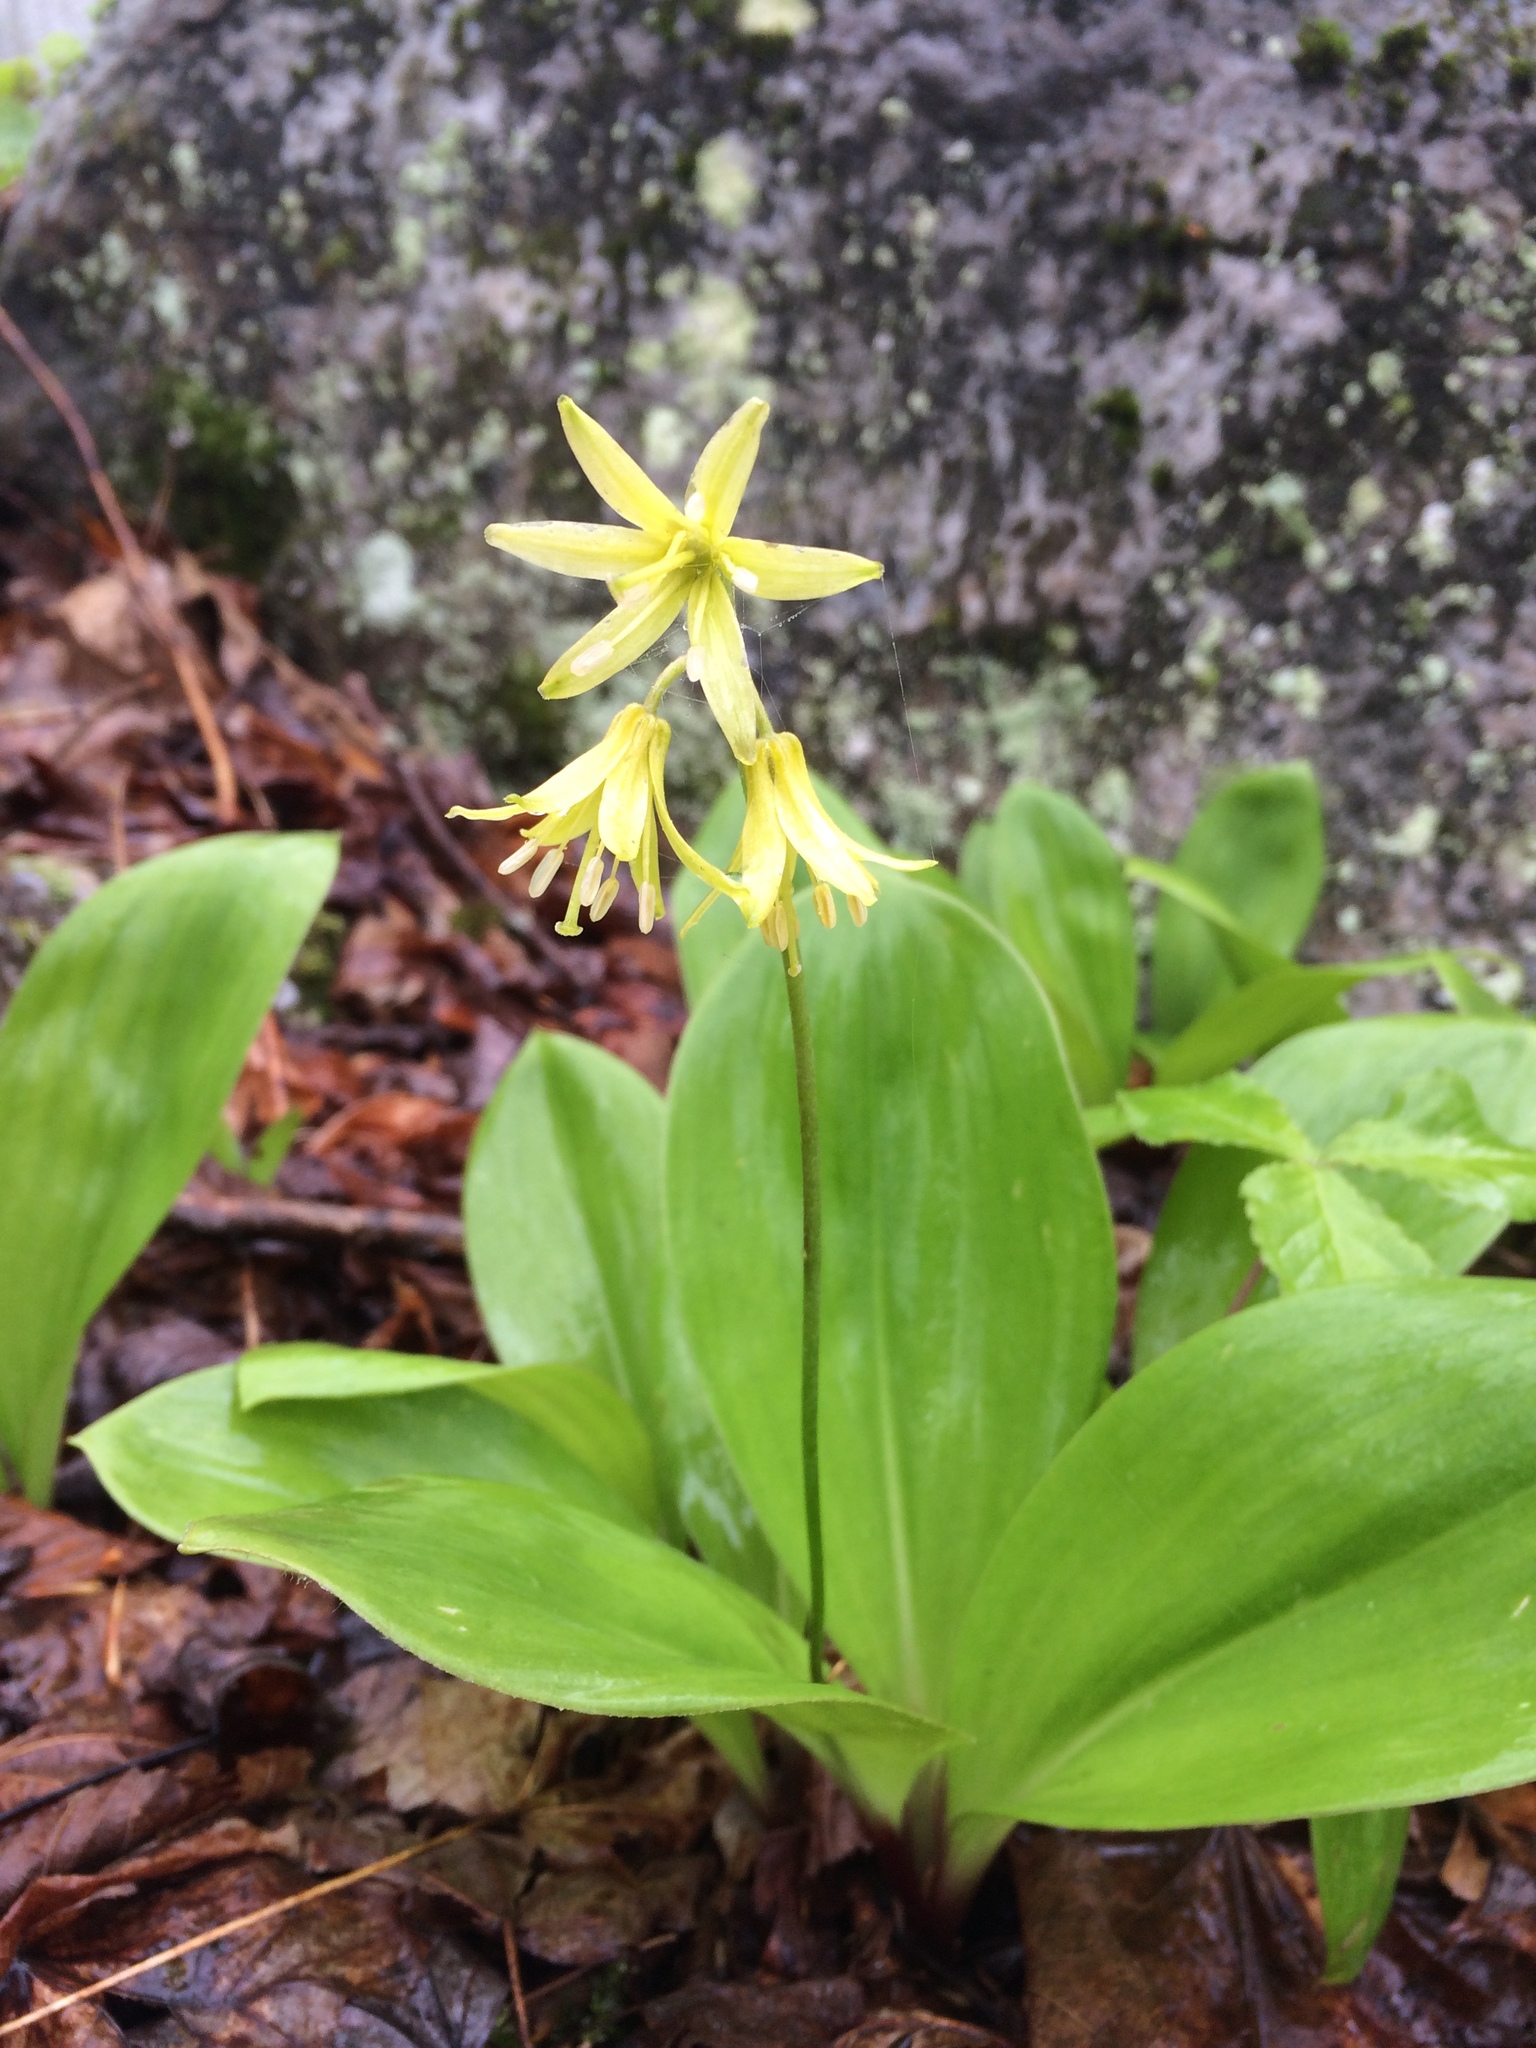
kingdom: Plantae
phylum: Tracheophyta
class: Liliopsida
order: Liliales
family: Liliaceae
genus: Clintonia
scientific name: Clintonia borealis
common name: Yellow clintonia
